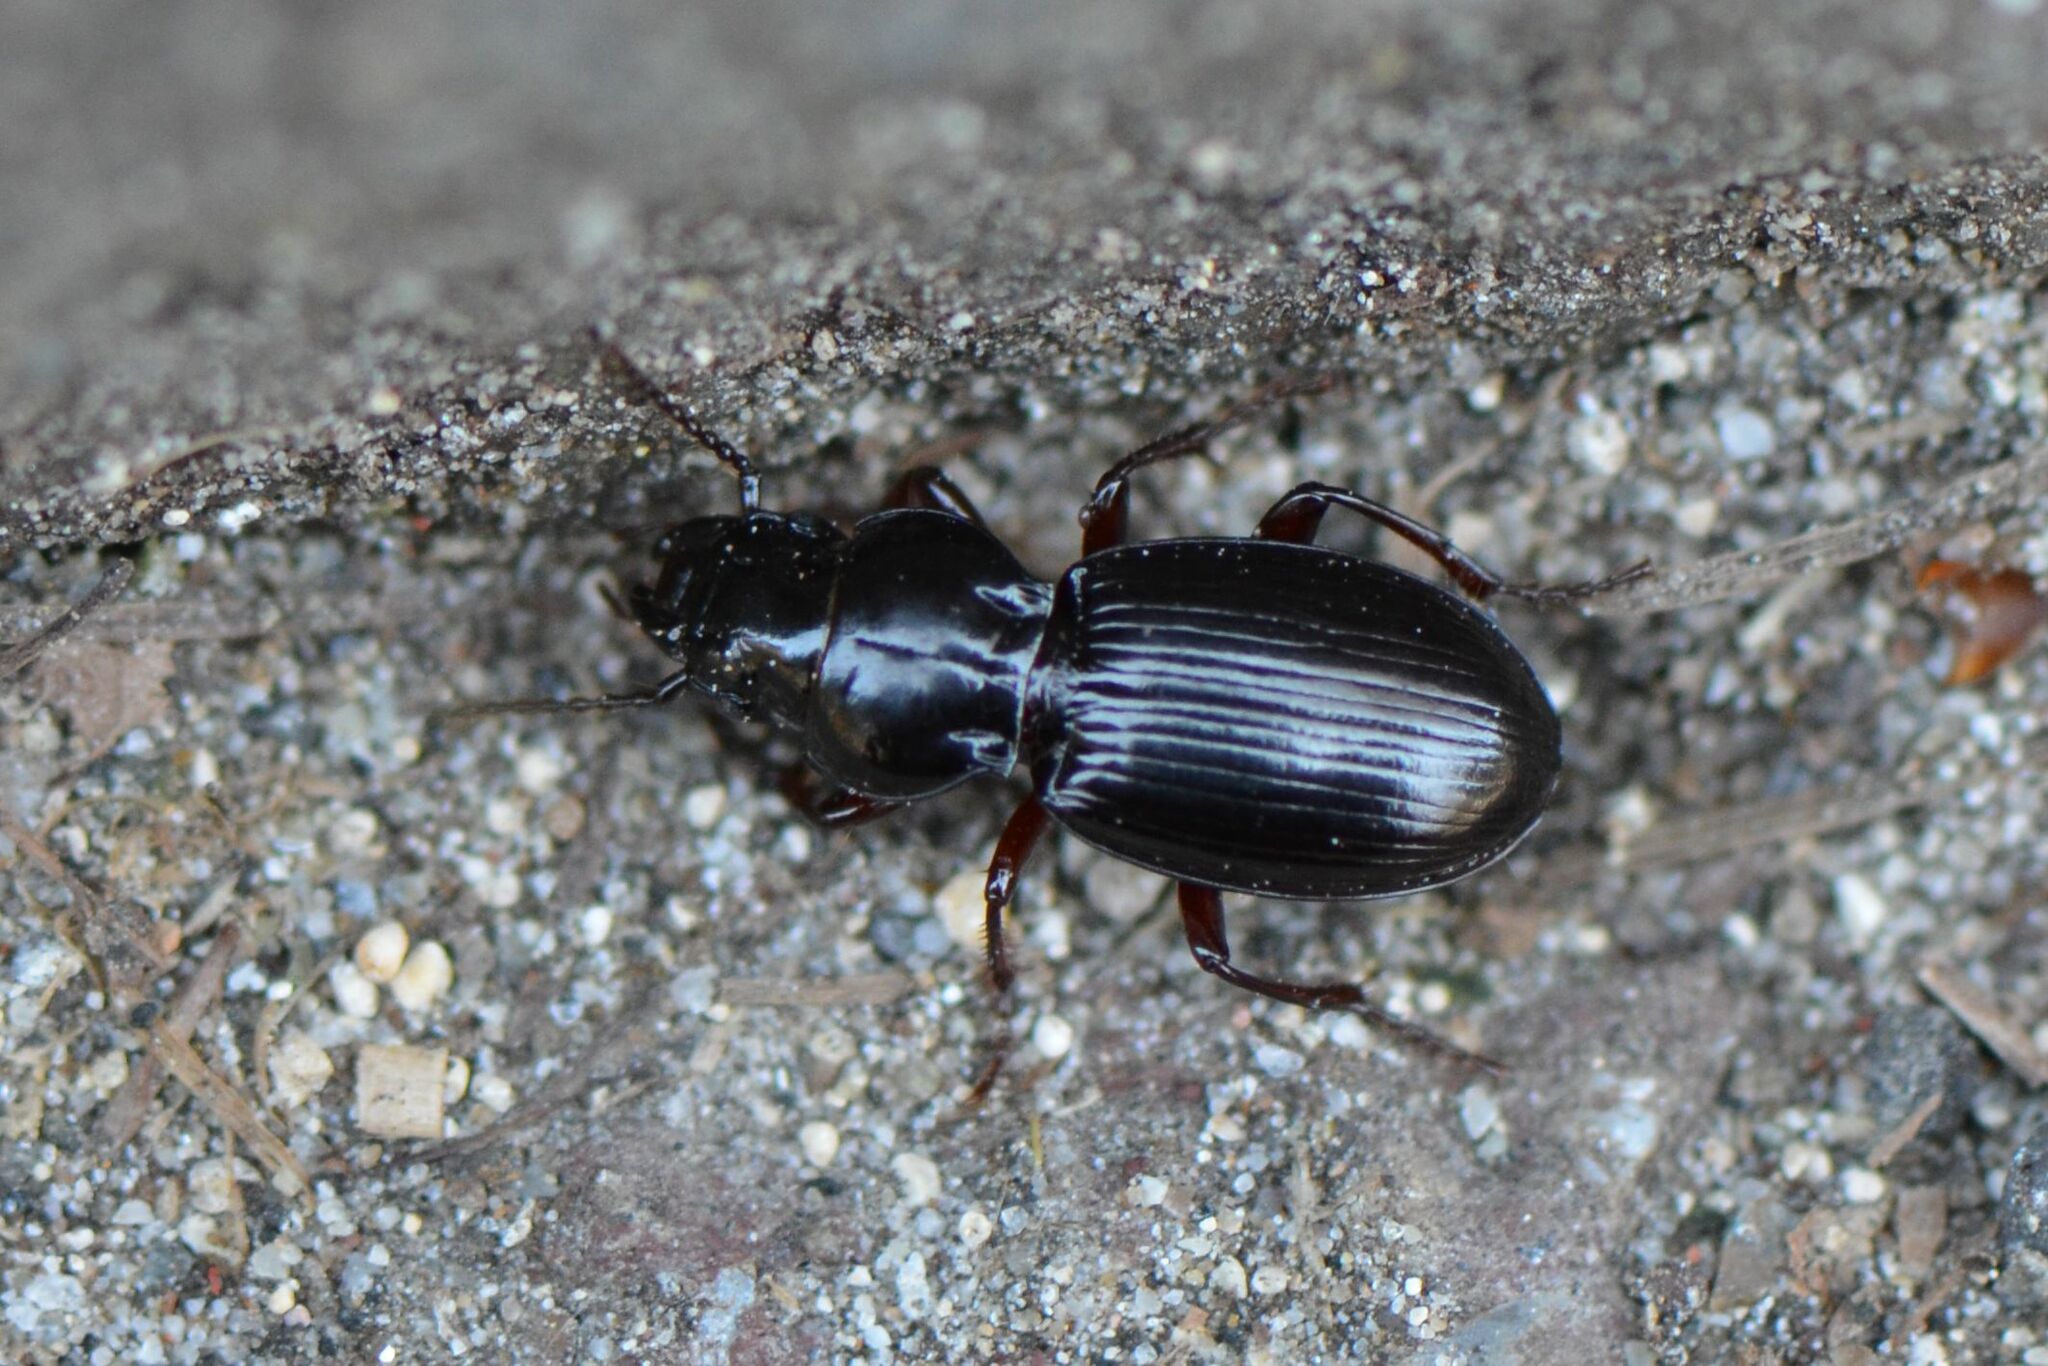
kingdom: Animalia
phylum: Arthropoda
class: Insecta
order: Coleoptera
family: Carabidae
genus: Molops
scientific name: Molops piceus
